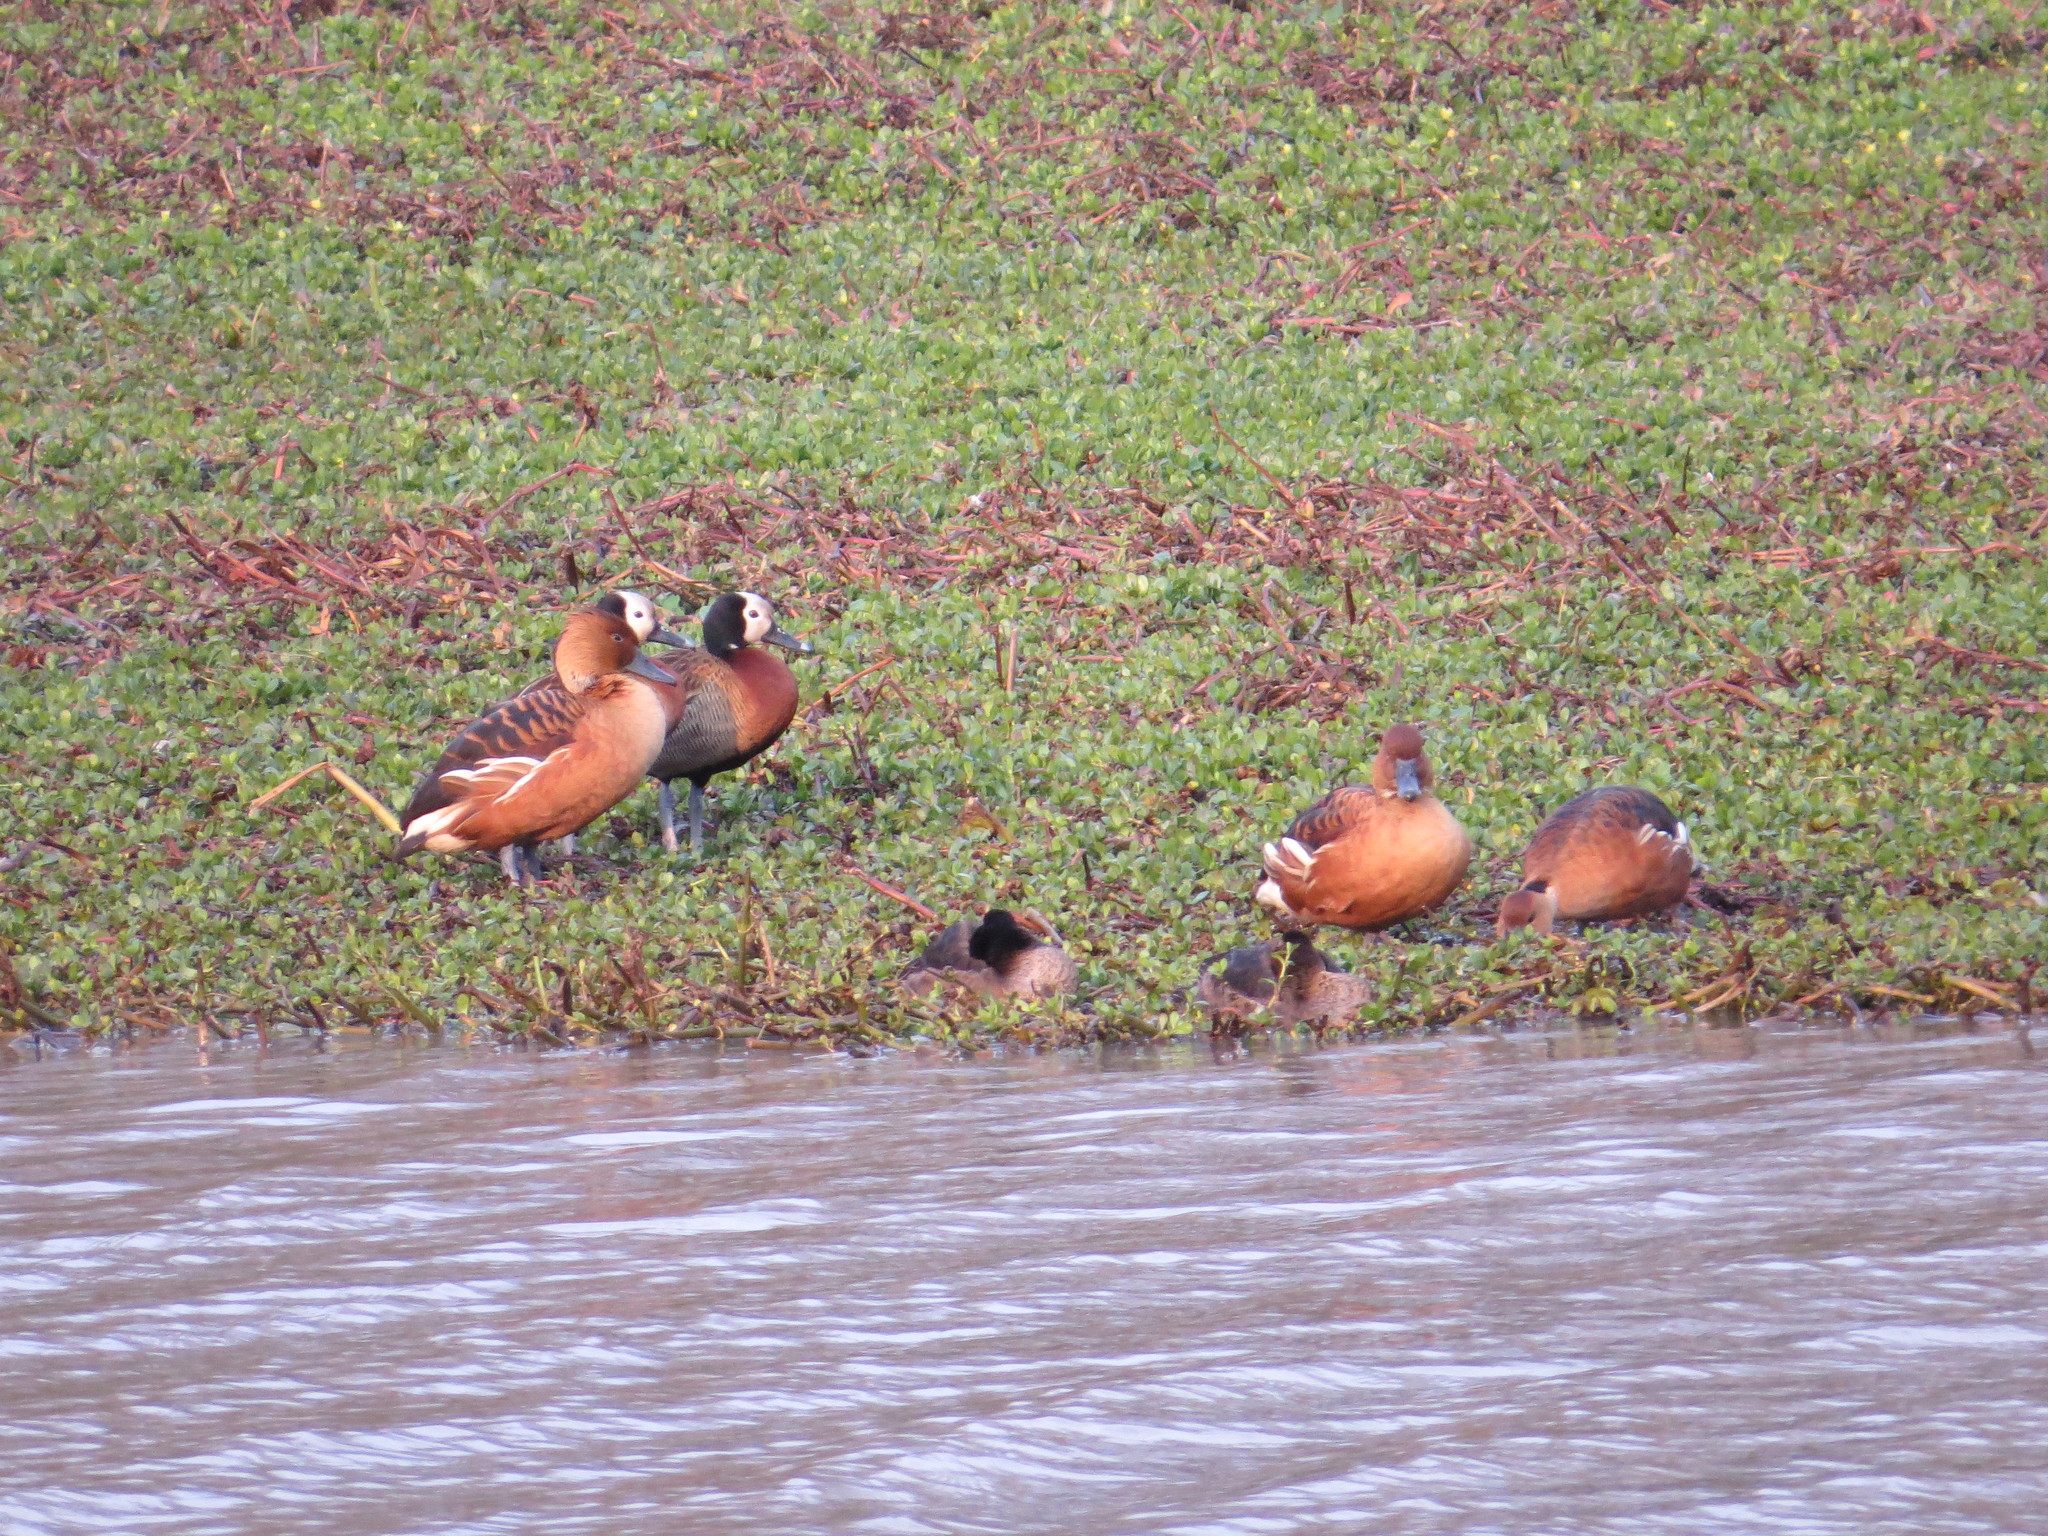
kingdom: Animalia
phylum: Chordata
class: Aves
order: Anseriformes
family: Anatidae
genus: Dendrocygna
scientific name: Dendrocygna bicolor
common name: Fulvous whistling duck
